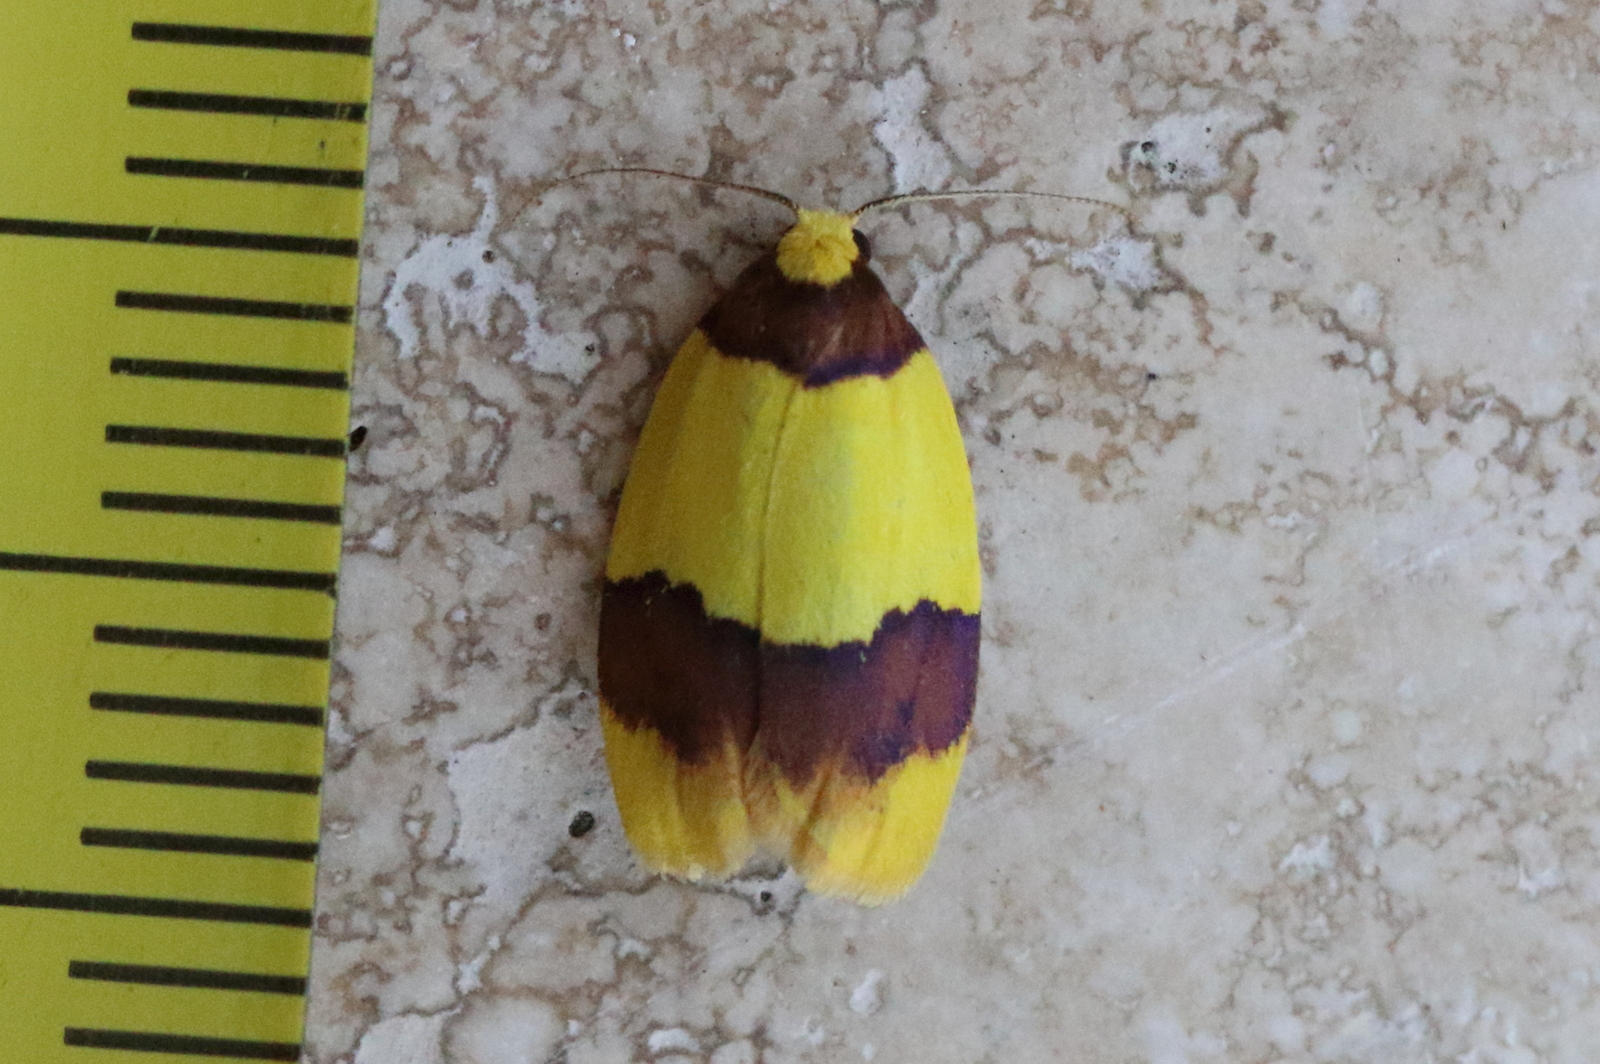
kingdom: Animalia
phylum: Arthropoda
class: Insecta
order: Lepidoptera
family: Erebidae
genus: Heterallactis
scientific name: Heterallactis euchrysa
